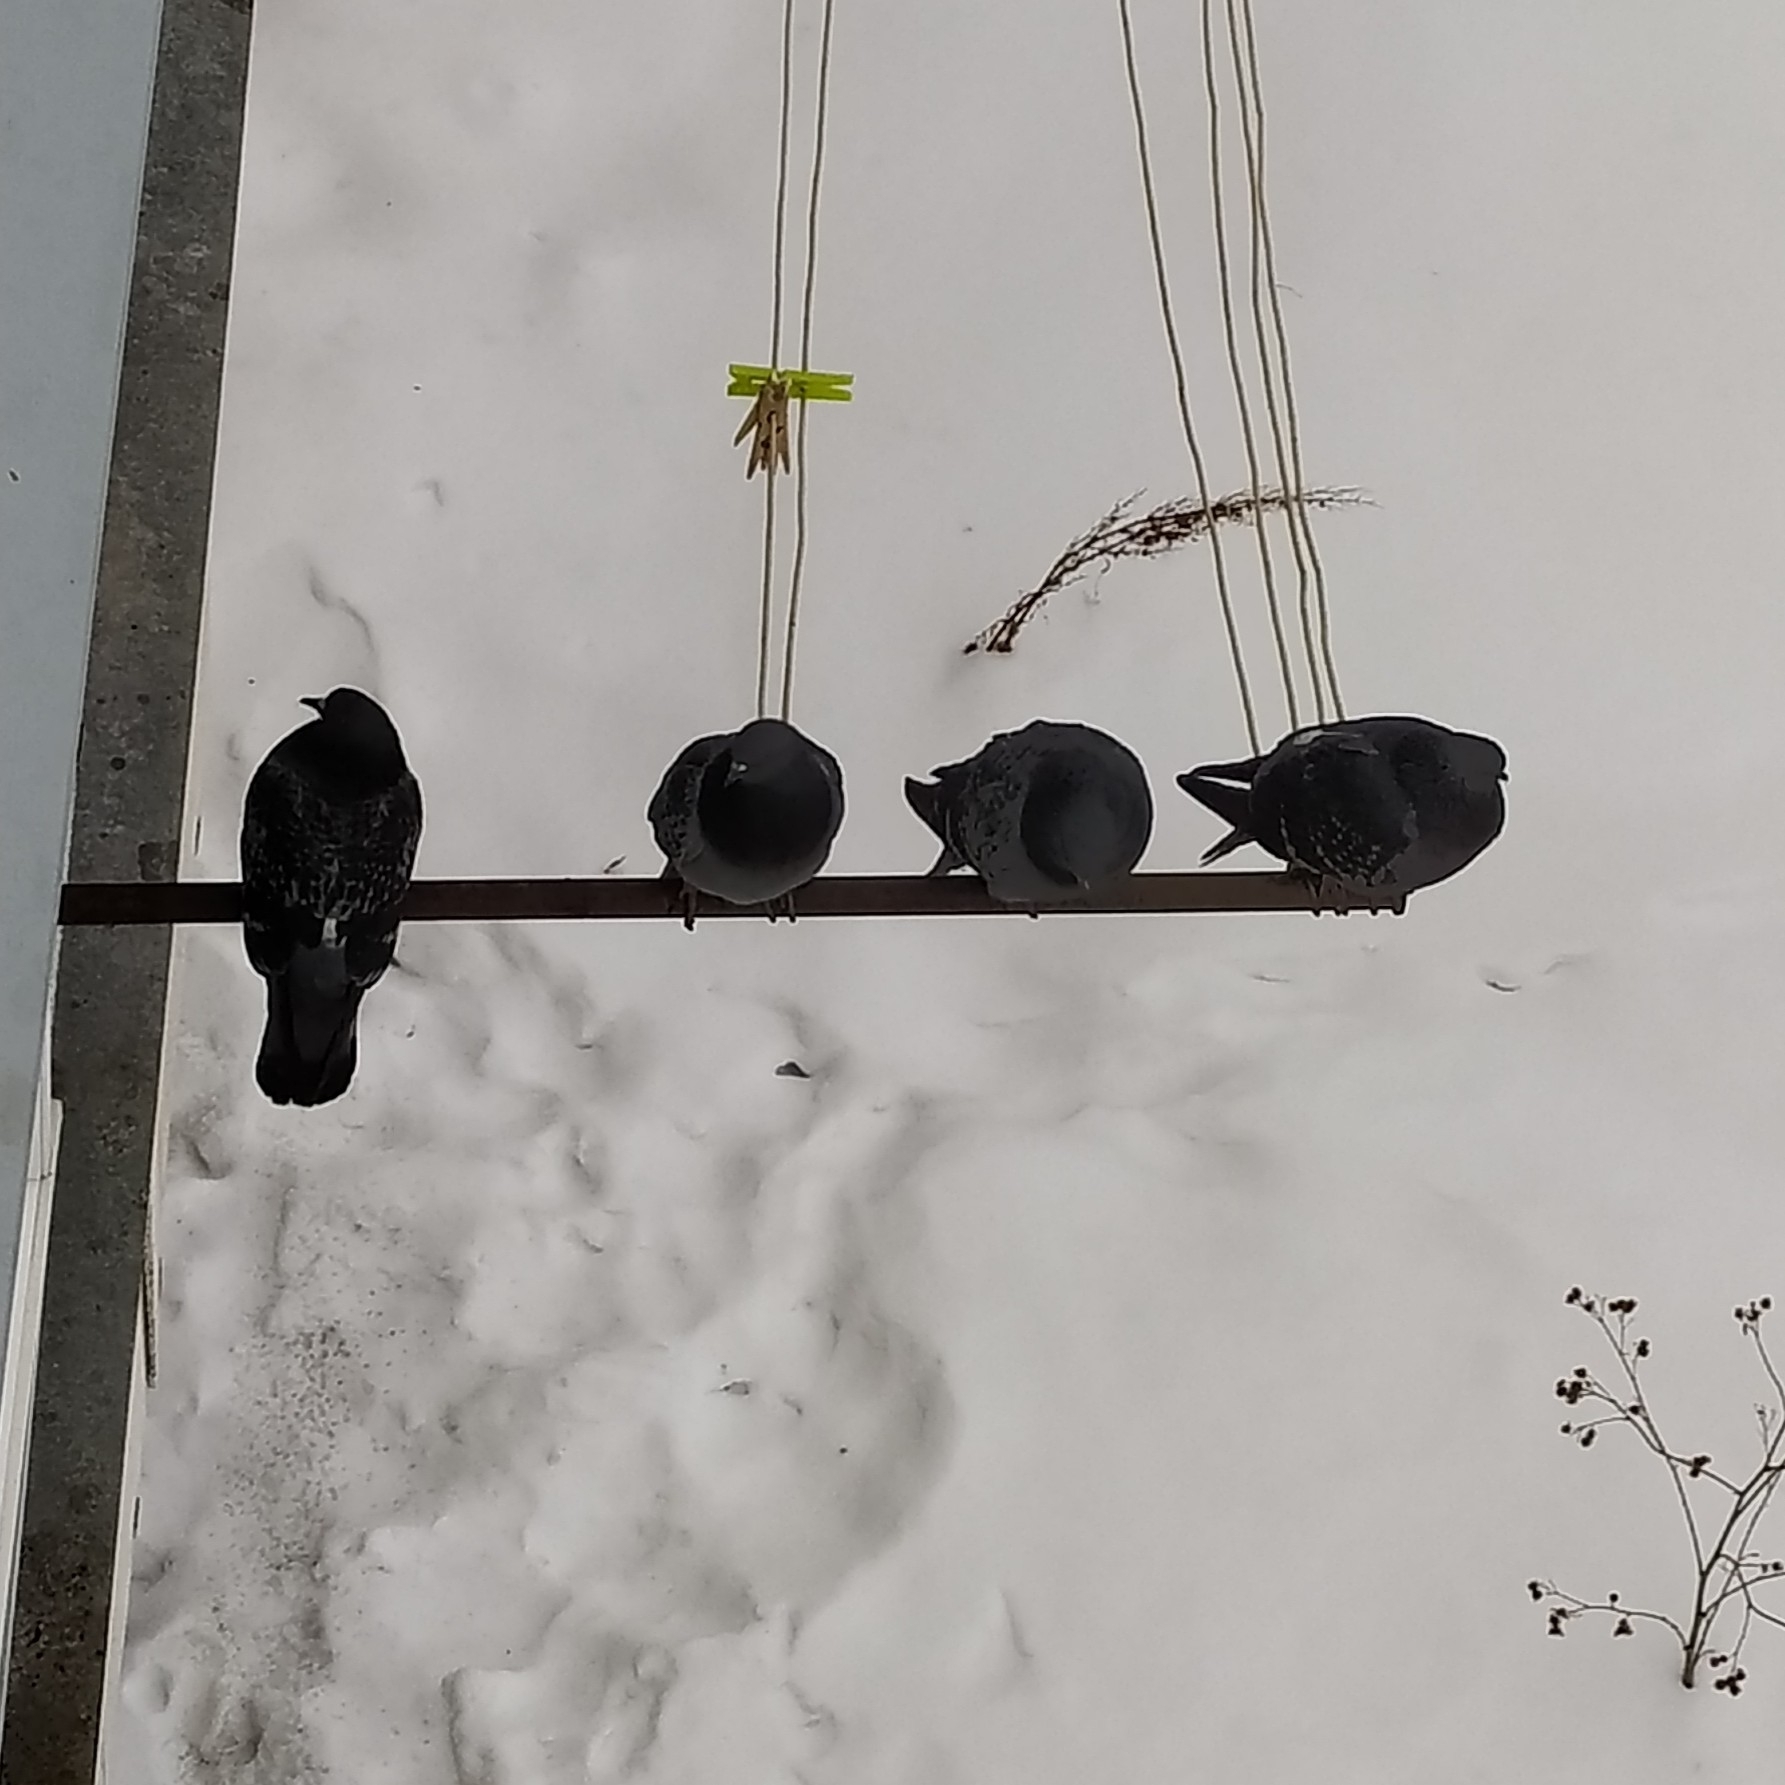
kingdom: Animalia
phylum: Chordata
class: Aves
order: Columbiformes
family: Columbidae
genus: Columba
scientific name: Columba livia
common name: Rock pigeon
